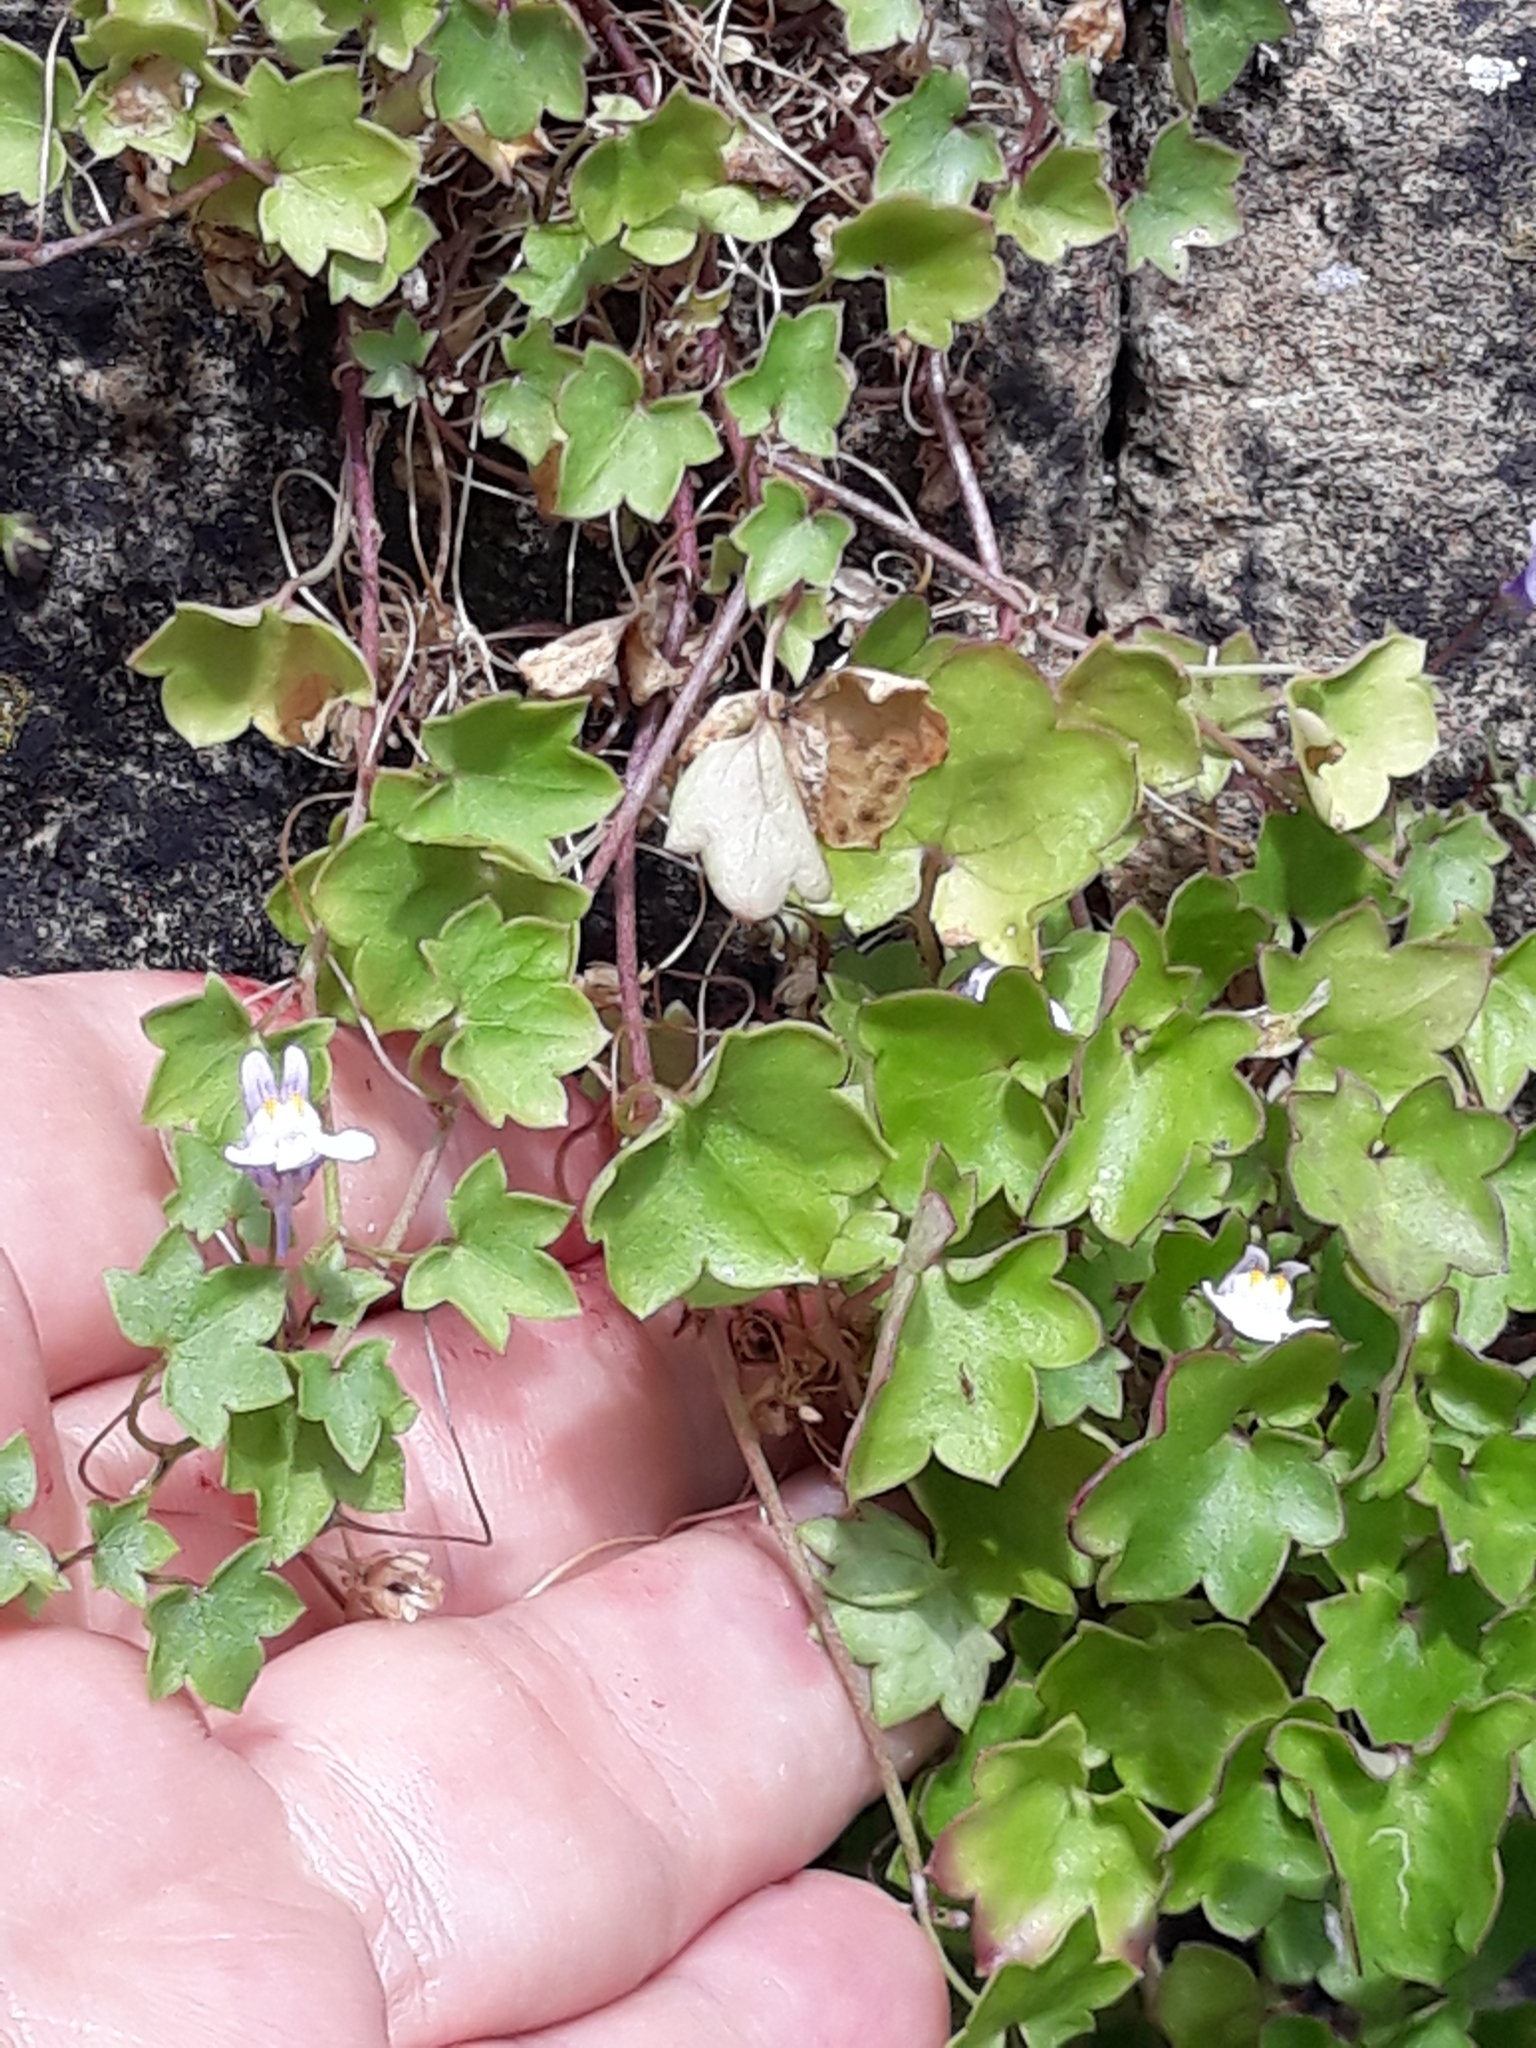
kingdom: Plantae
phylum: Tracheophyta
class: Magnoliopsida
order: Lamiales
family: Plantaginaceae
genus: Cymbalaria
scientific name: Cymbalaria muralis
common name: Ivy-leaved toadflax
